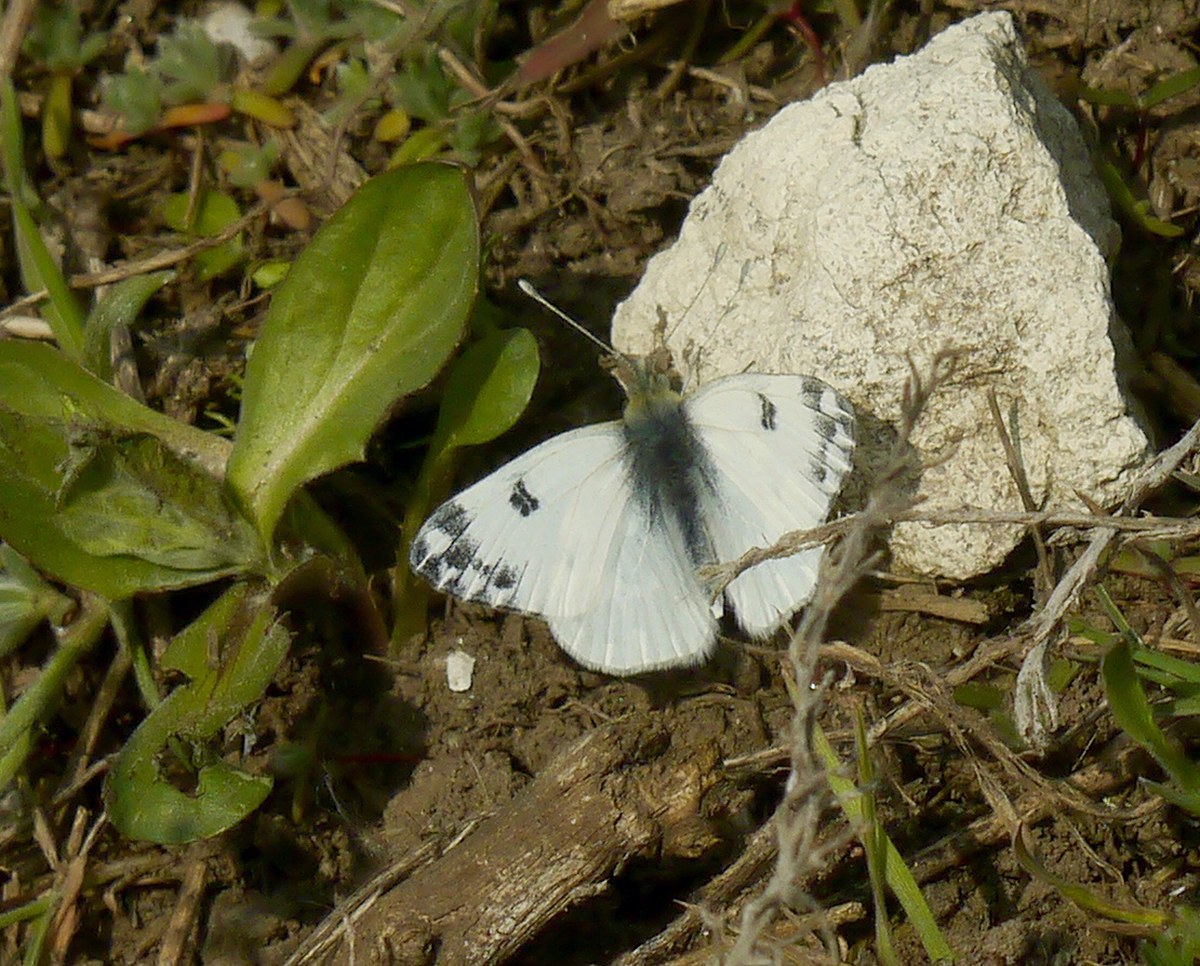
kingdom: Animalia
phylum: Arthropoda
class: Insecta
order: Lepidoptera
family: Pieridae
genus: Pontia
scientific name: Pontia edusa
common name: Eastern bath white
